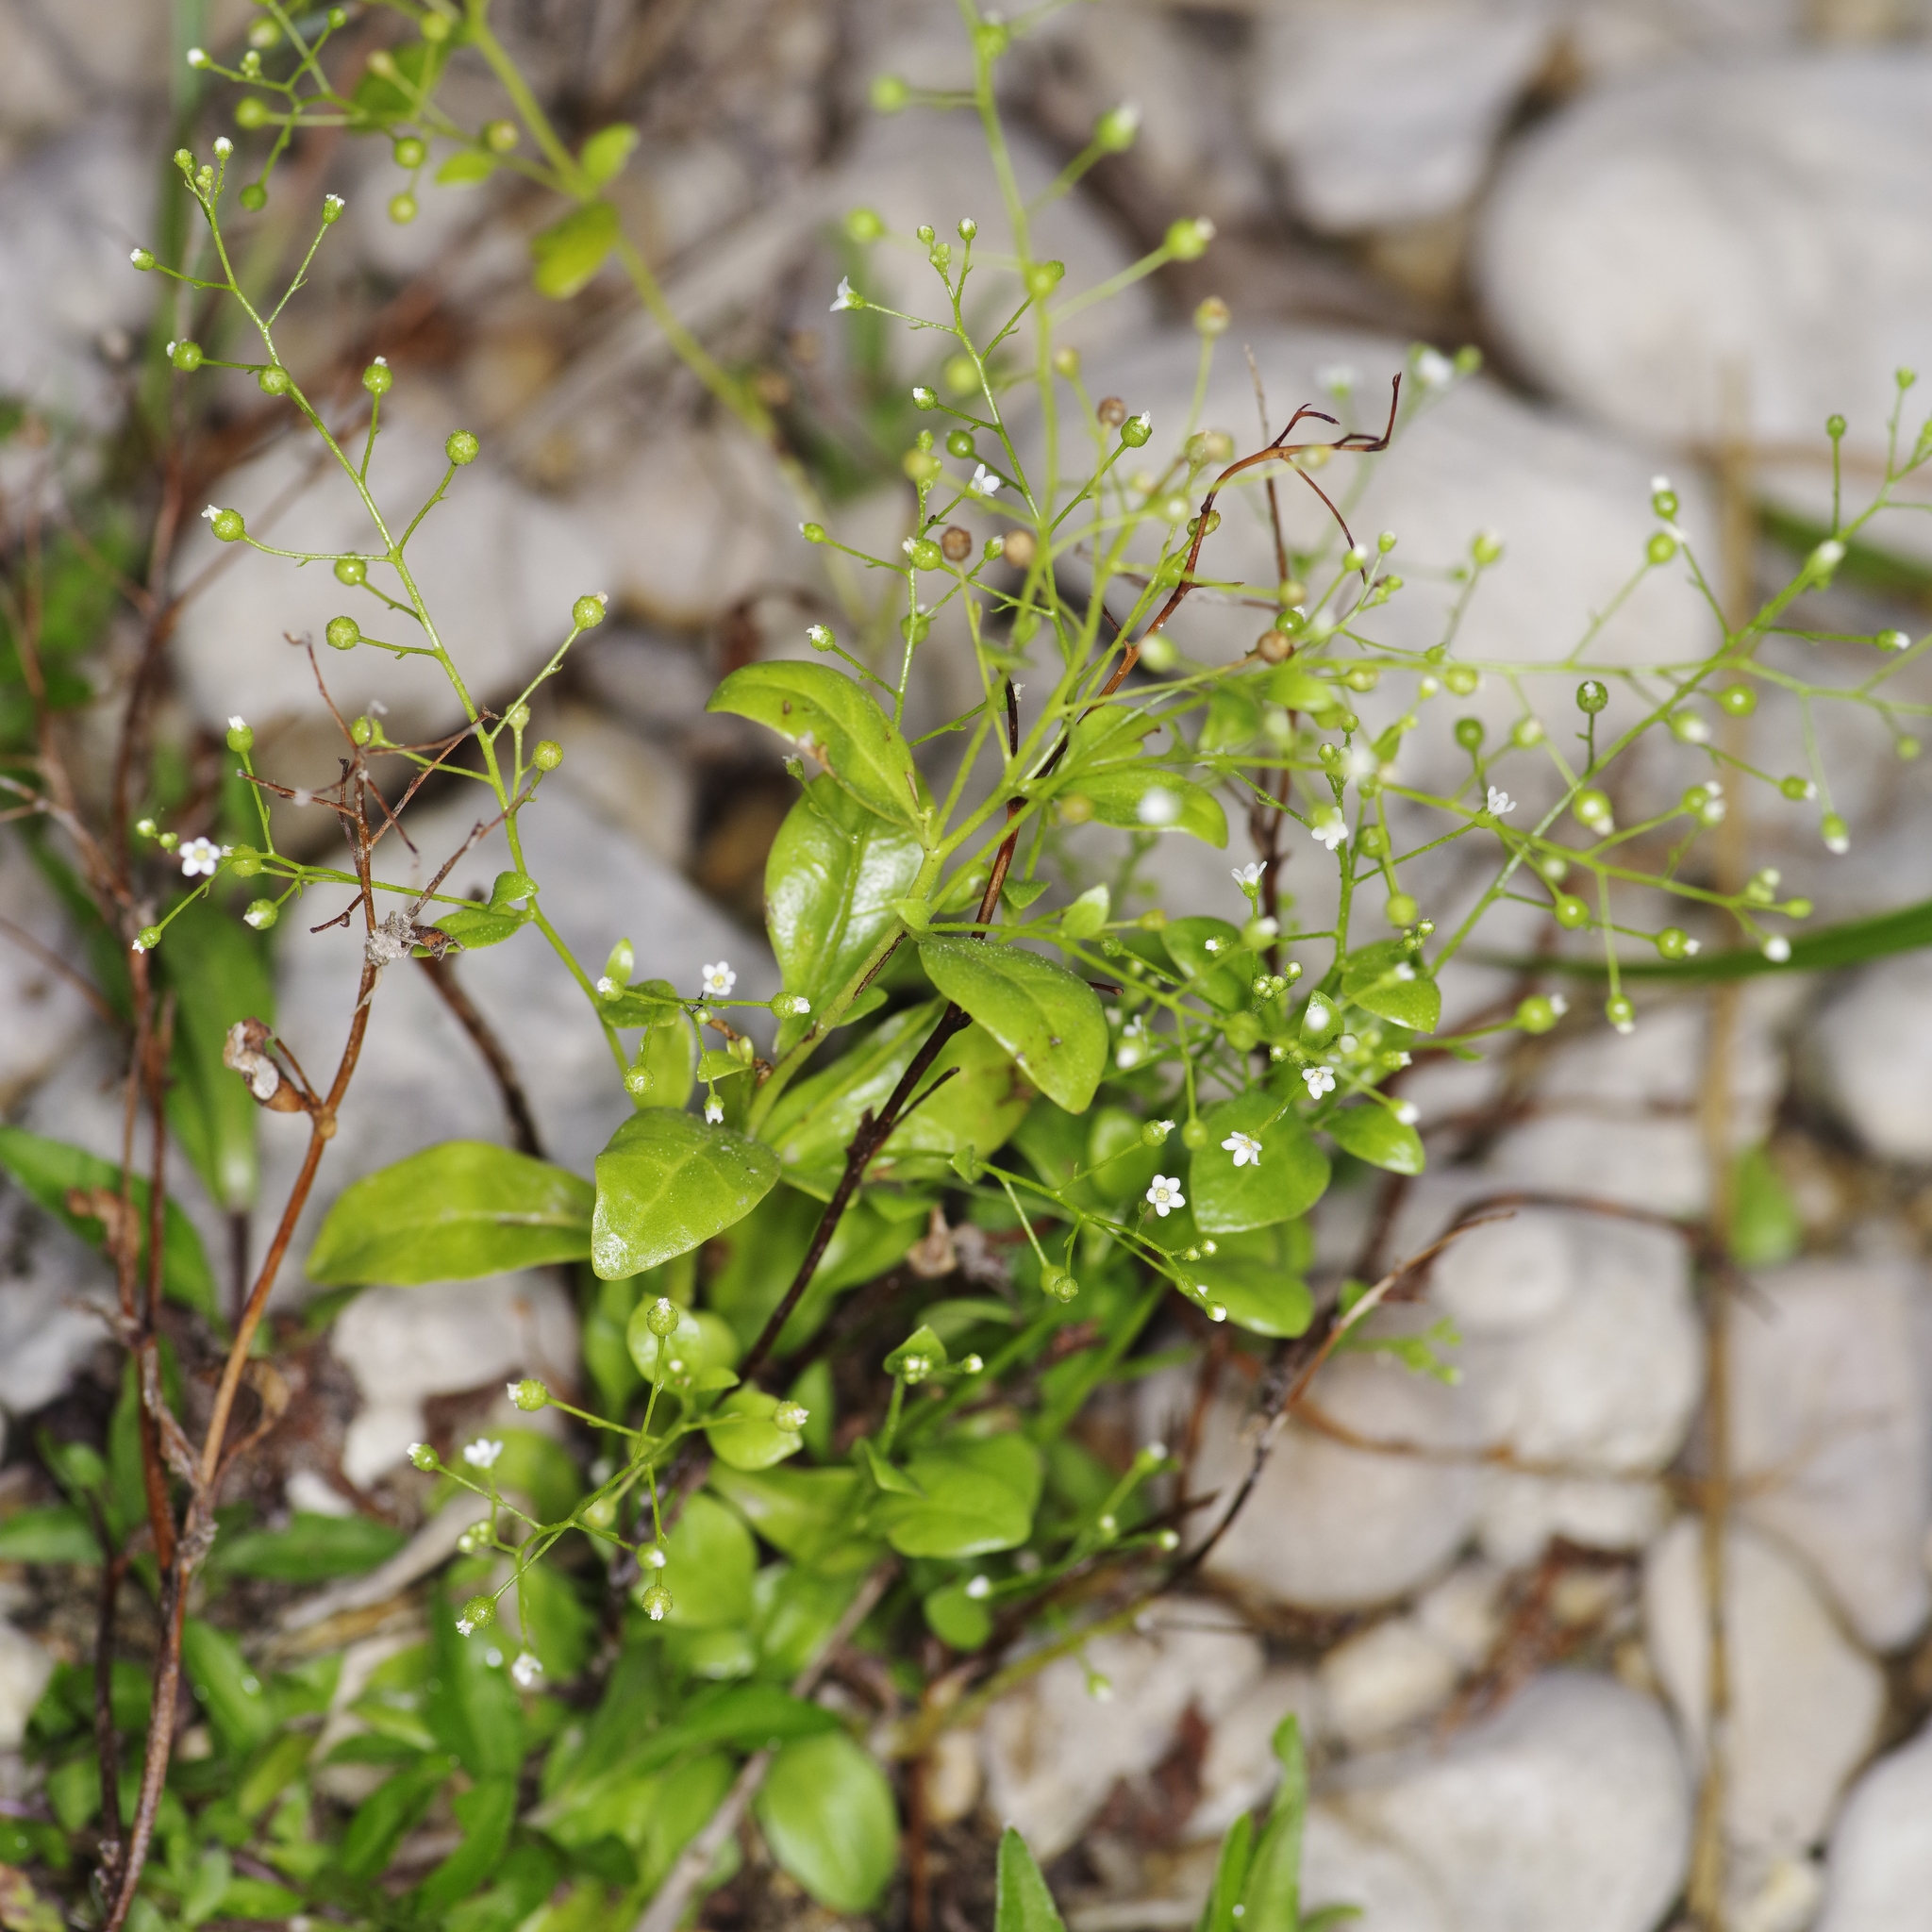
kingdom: Plantae
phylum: Tracheophyta
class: Magnoliopsida
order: Ericales
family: Primulaceae
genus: Samolus
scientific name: Samolus parviflorus
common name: False water pimpernel
